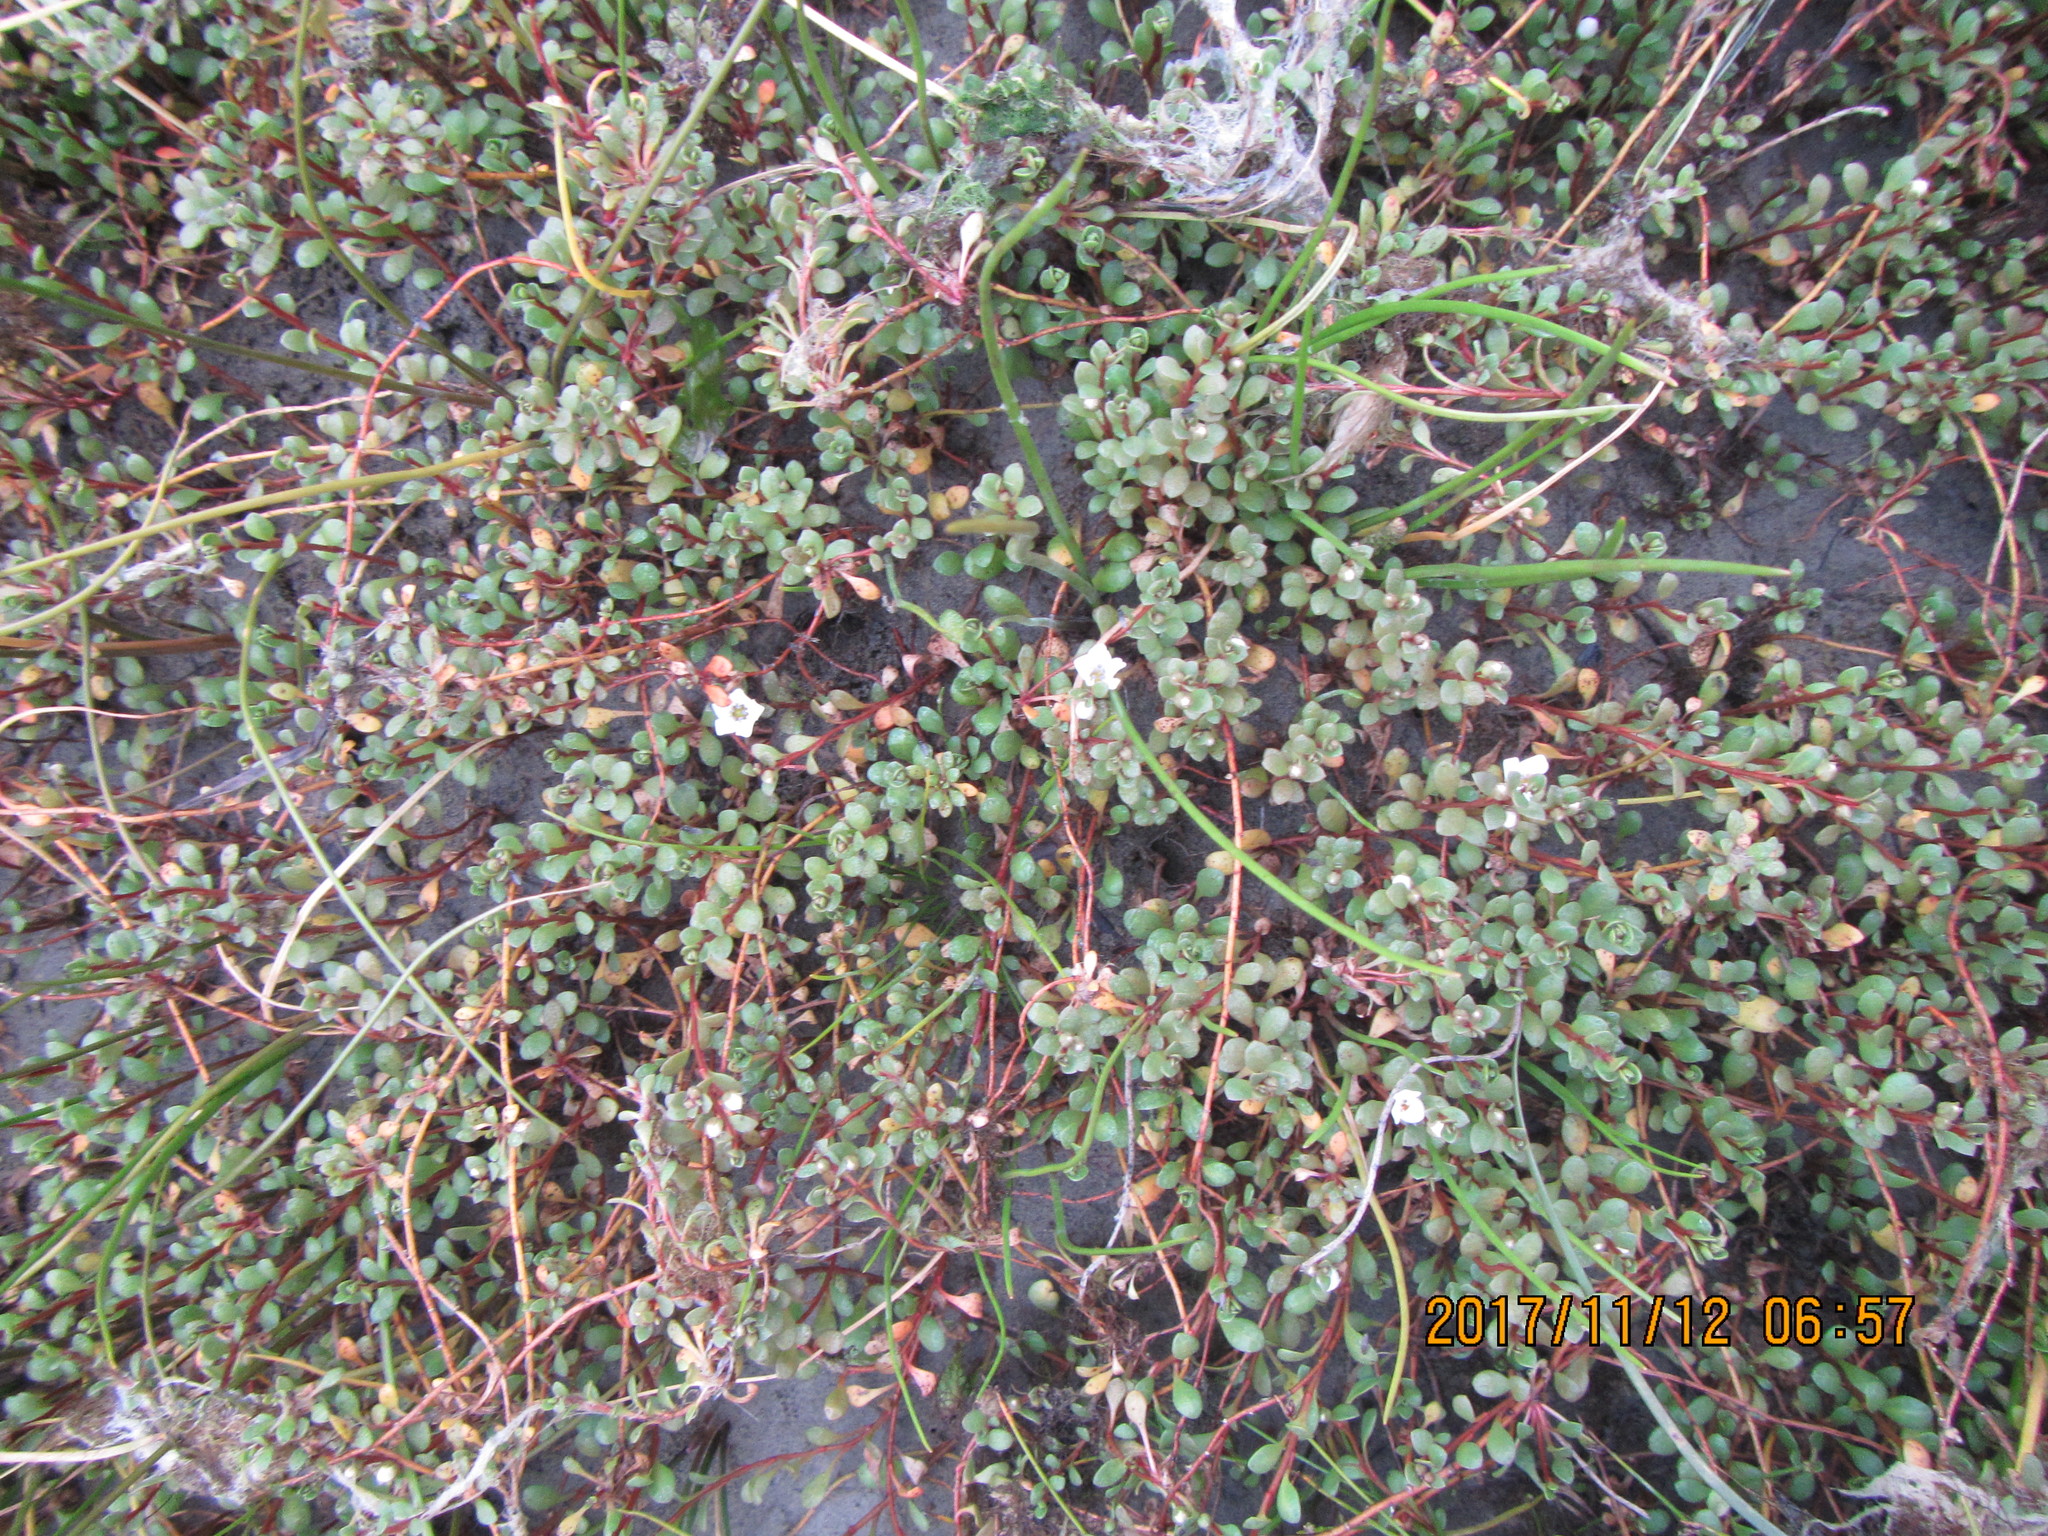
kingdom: Plantae
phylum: Tracheophyta
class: Magnoliopsida
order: Ericales
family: Primulaceae
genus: Samolus
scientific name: Samolus repens
